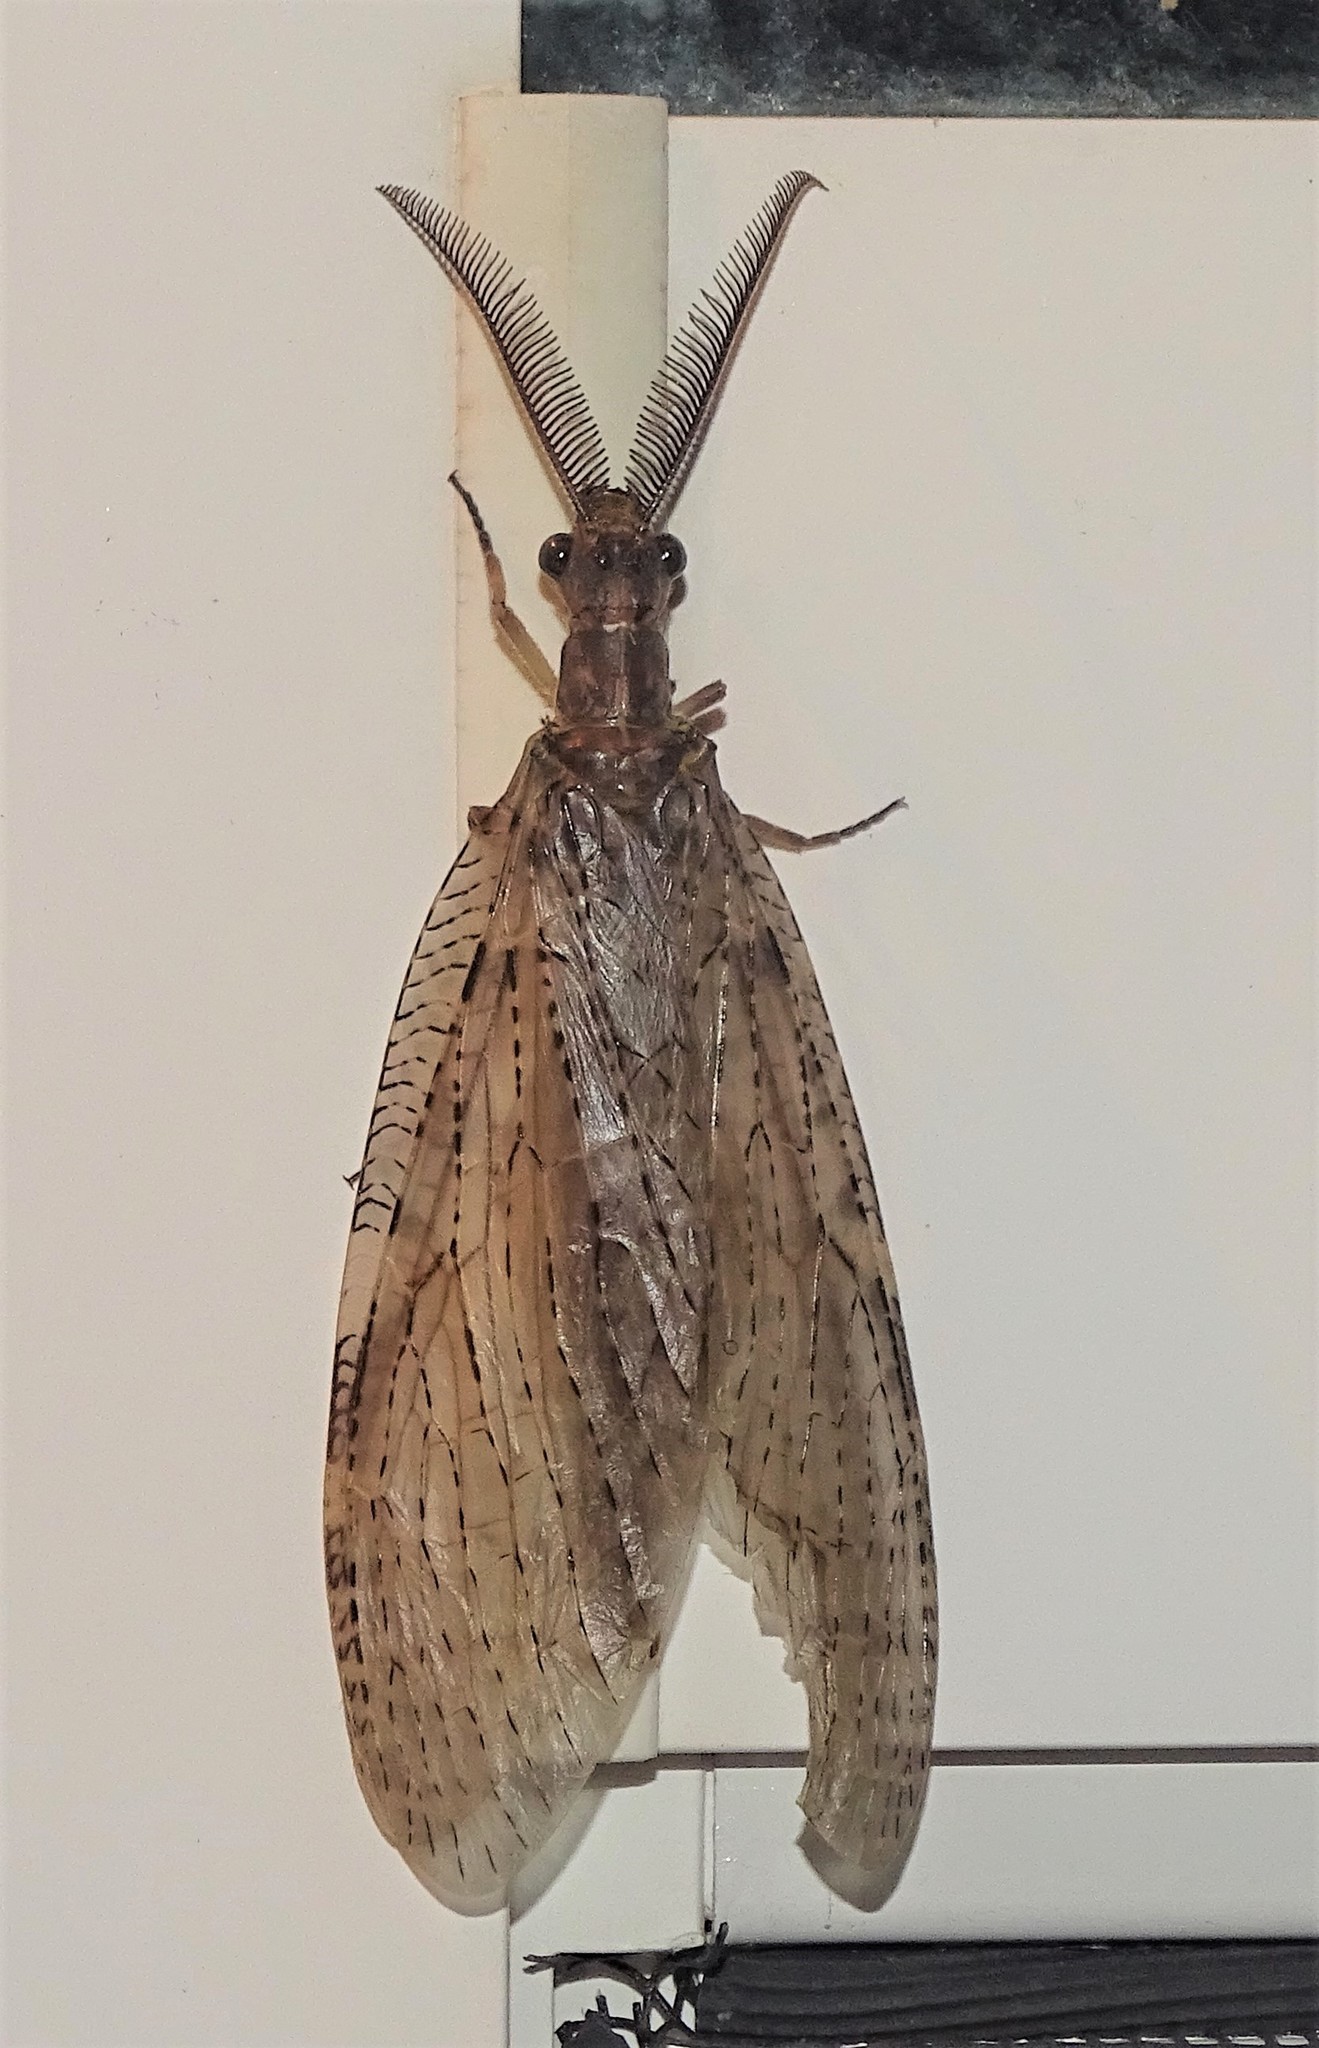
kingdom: Animalia
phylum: Arthropoda
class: Insecta
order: Megaloptera
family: Corydalidae
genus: Chauliodes
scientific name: Chauliodes pectinicornis
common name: Summer fishfly
